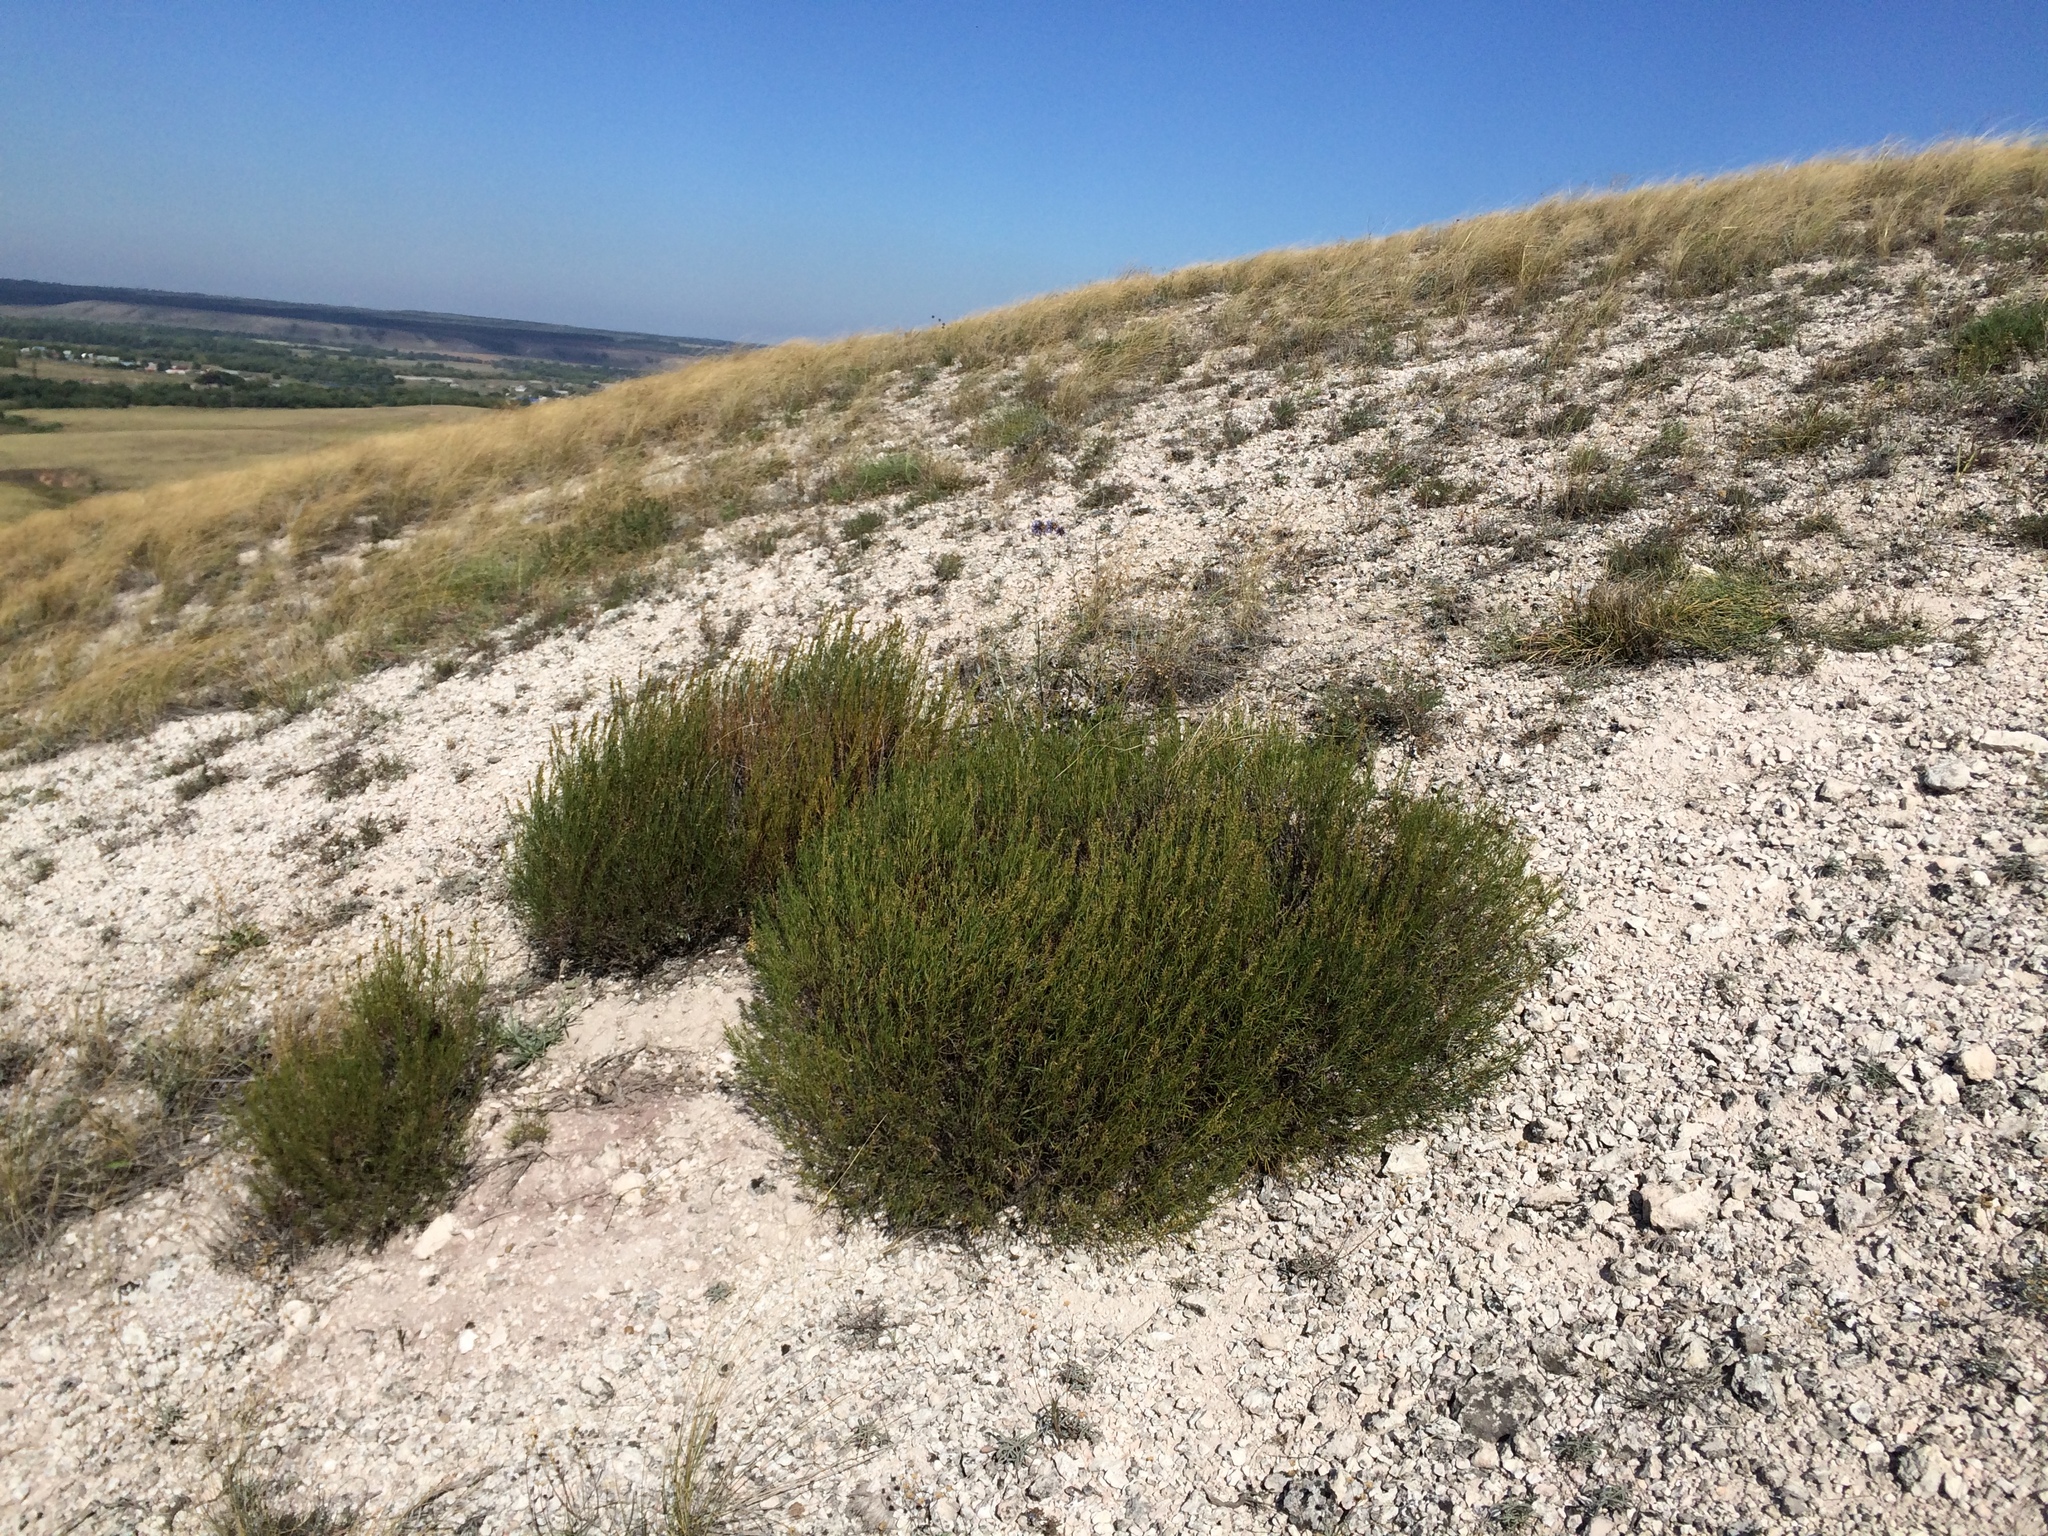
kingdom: Plantae
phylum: Tracheophyta
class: Magnoliopsida
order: Asterales
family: Asteraceae
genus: Artemisia
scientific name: Artemisia salsoloides
